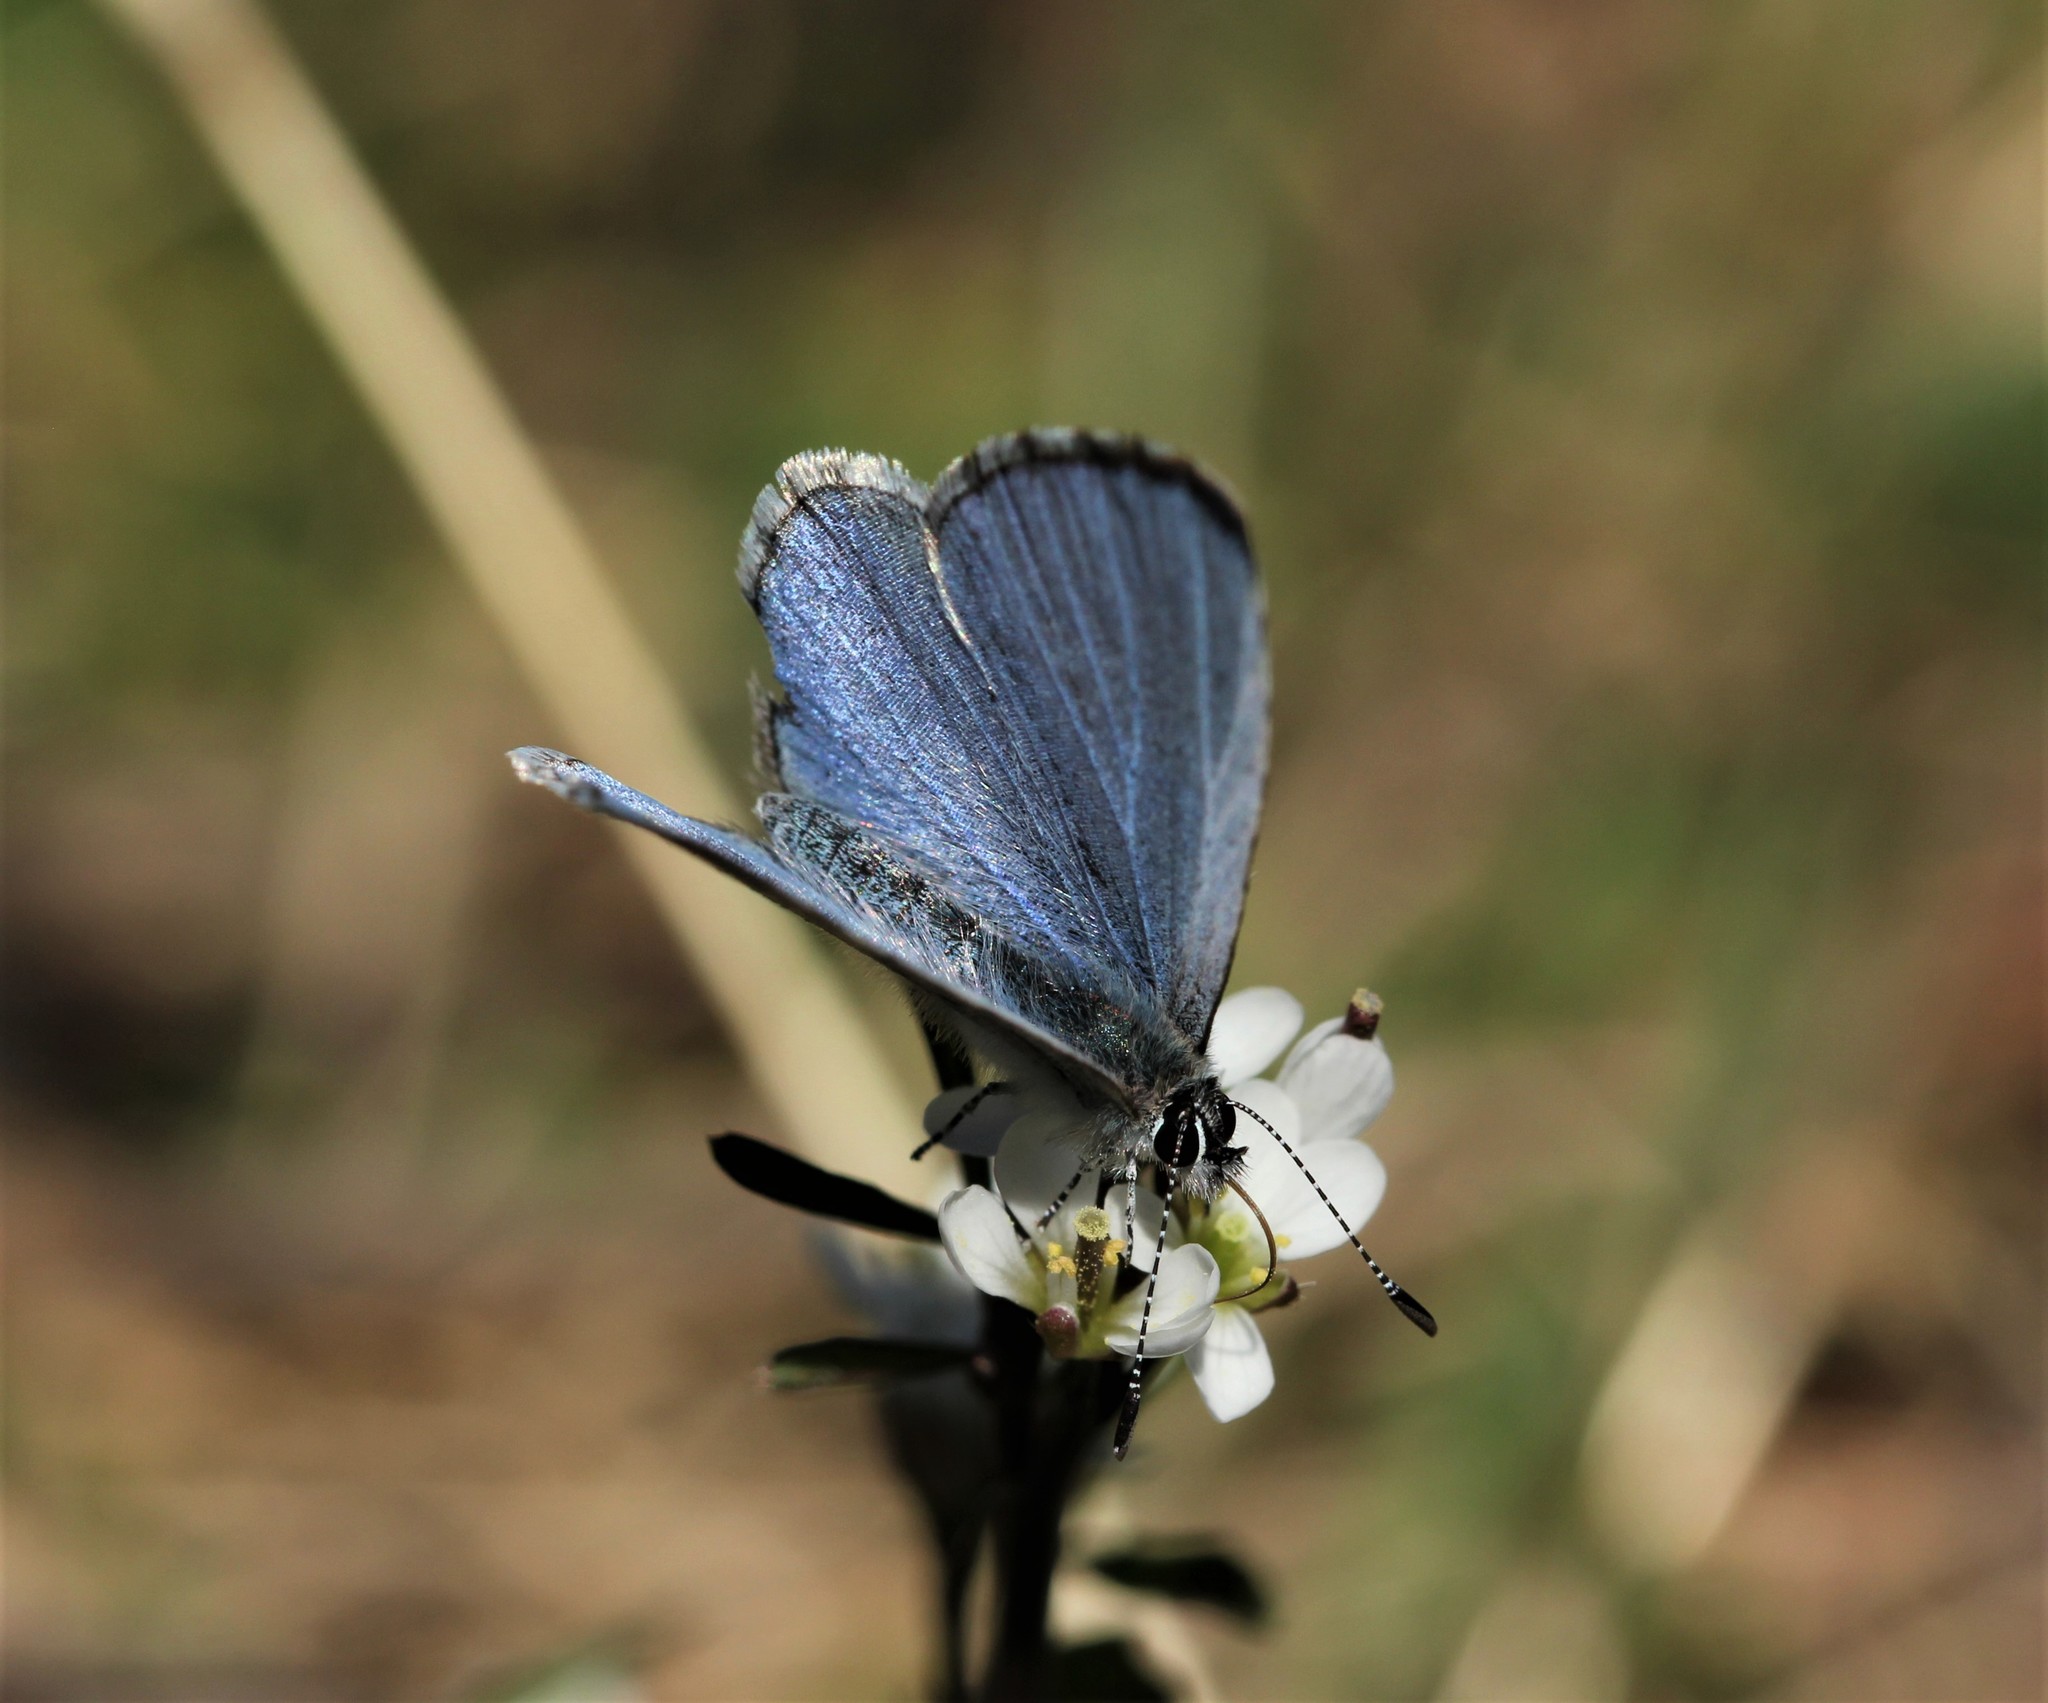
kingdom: Animalia
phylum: Arthropoda
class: Insecta
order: Lepidoptera
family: Lycaenidae
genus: Cyaniris
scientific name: Cyaniris neglecta
